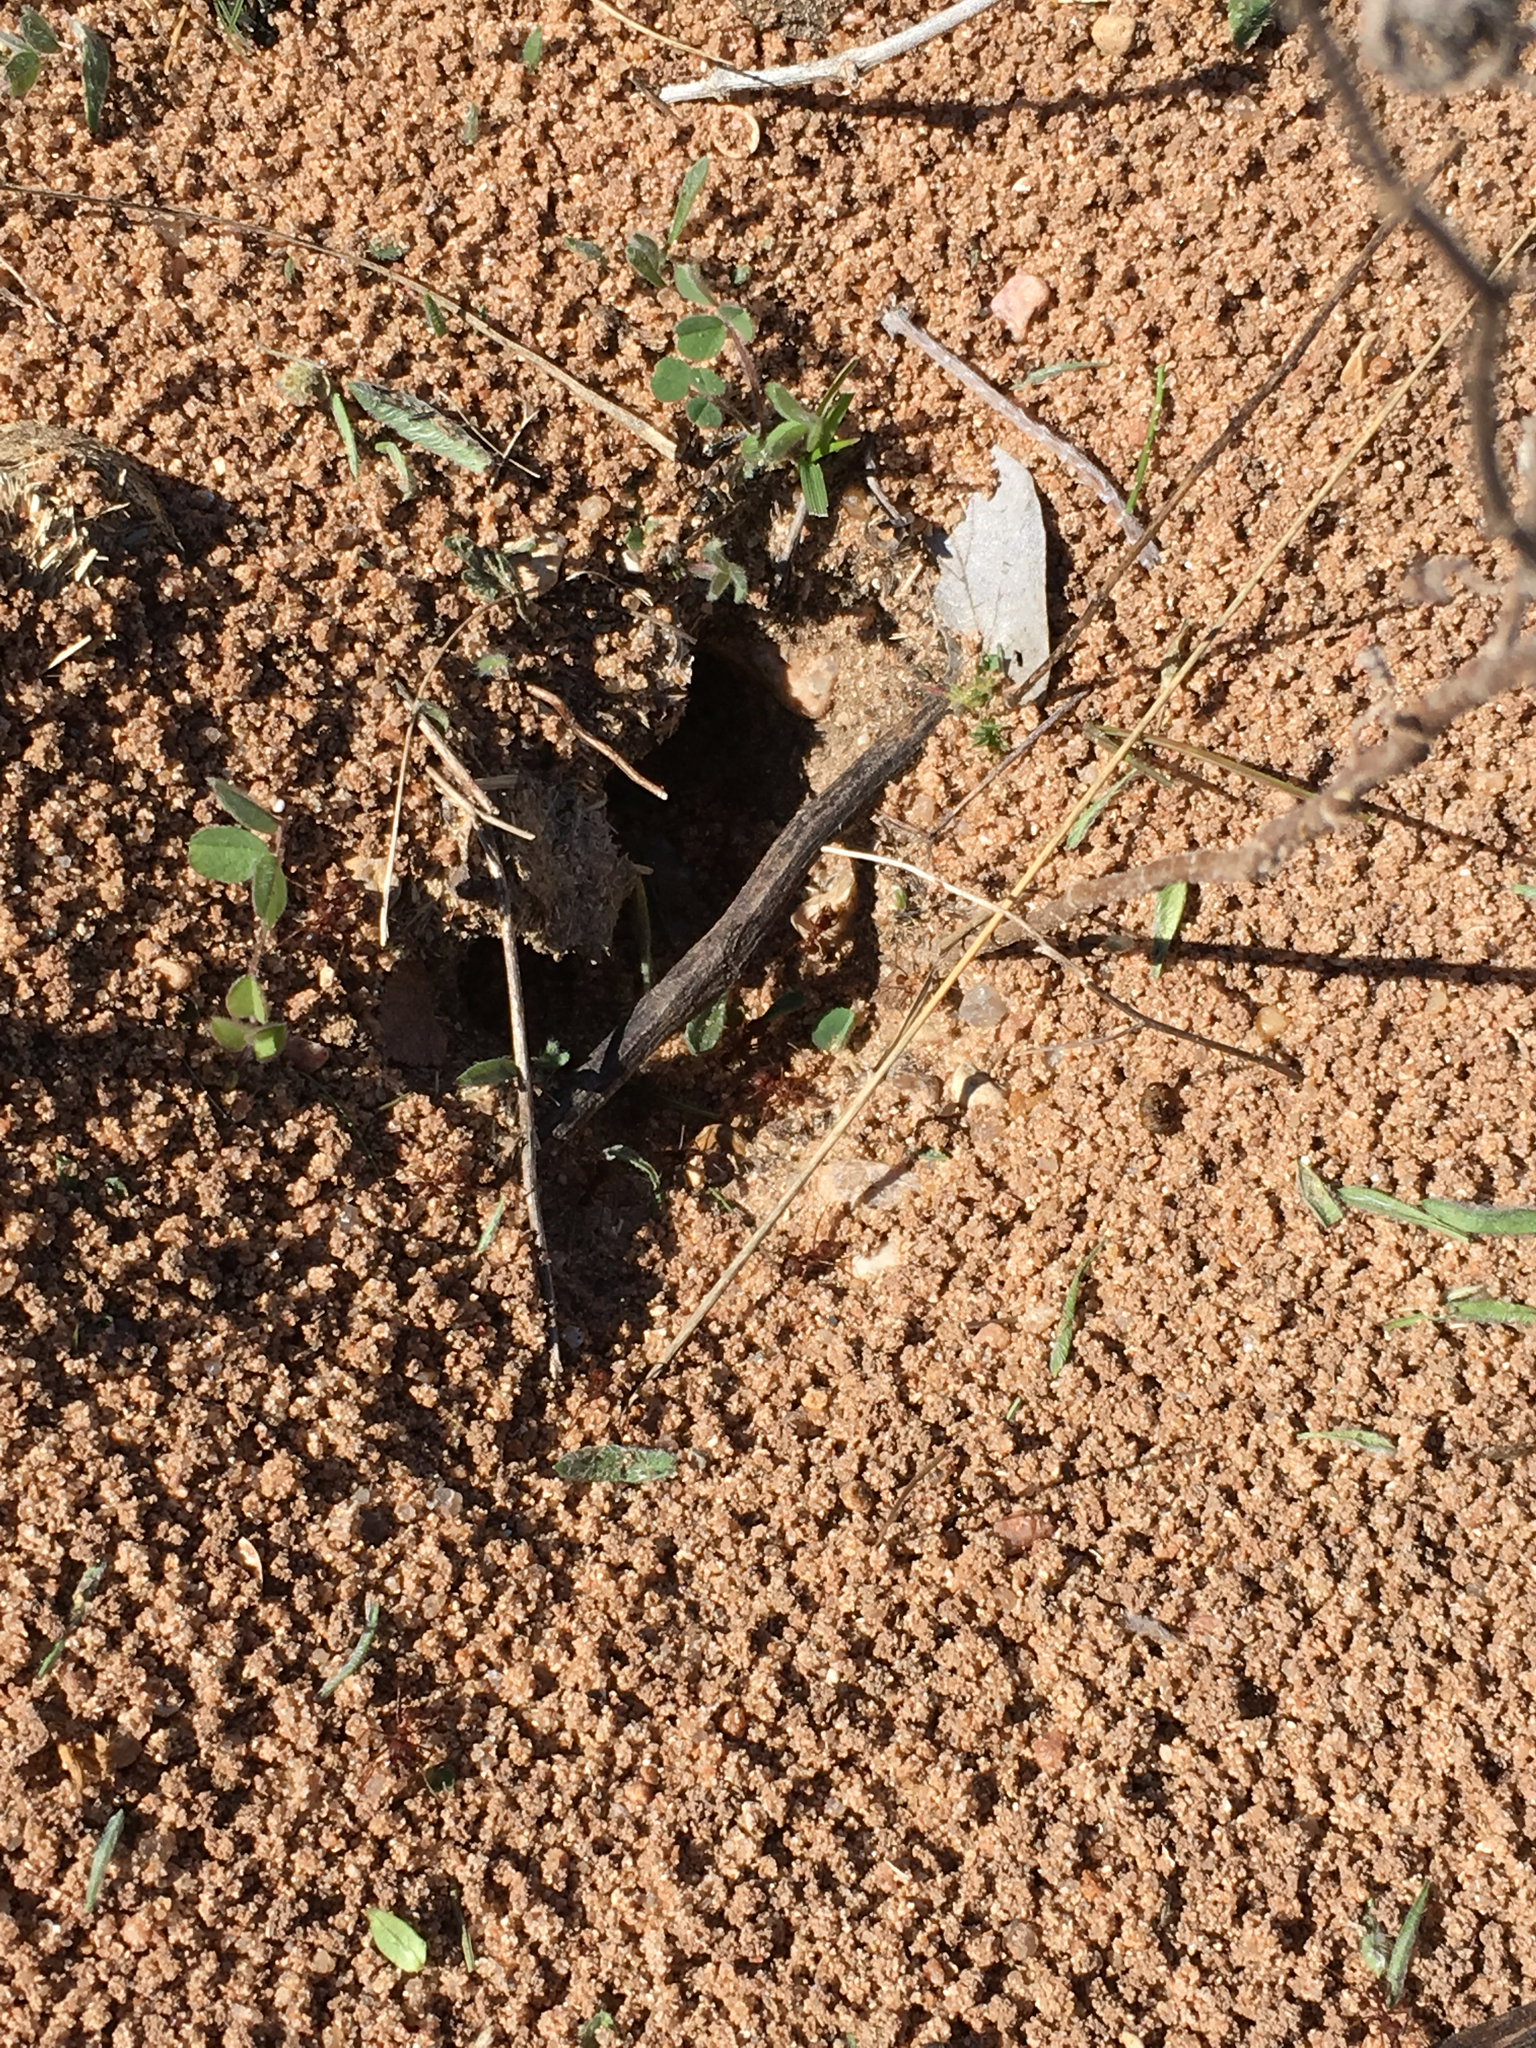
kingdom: Animalia
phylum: Arthropoda
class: Insecta
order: Hymenoptera
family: Formicidae
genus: Atta
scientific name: Atta texana
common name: Texas leafcutting ant
